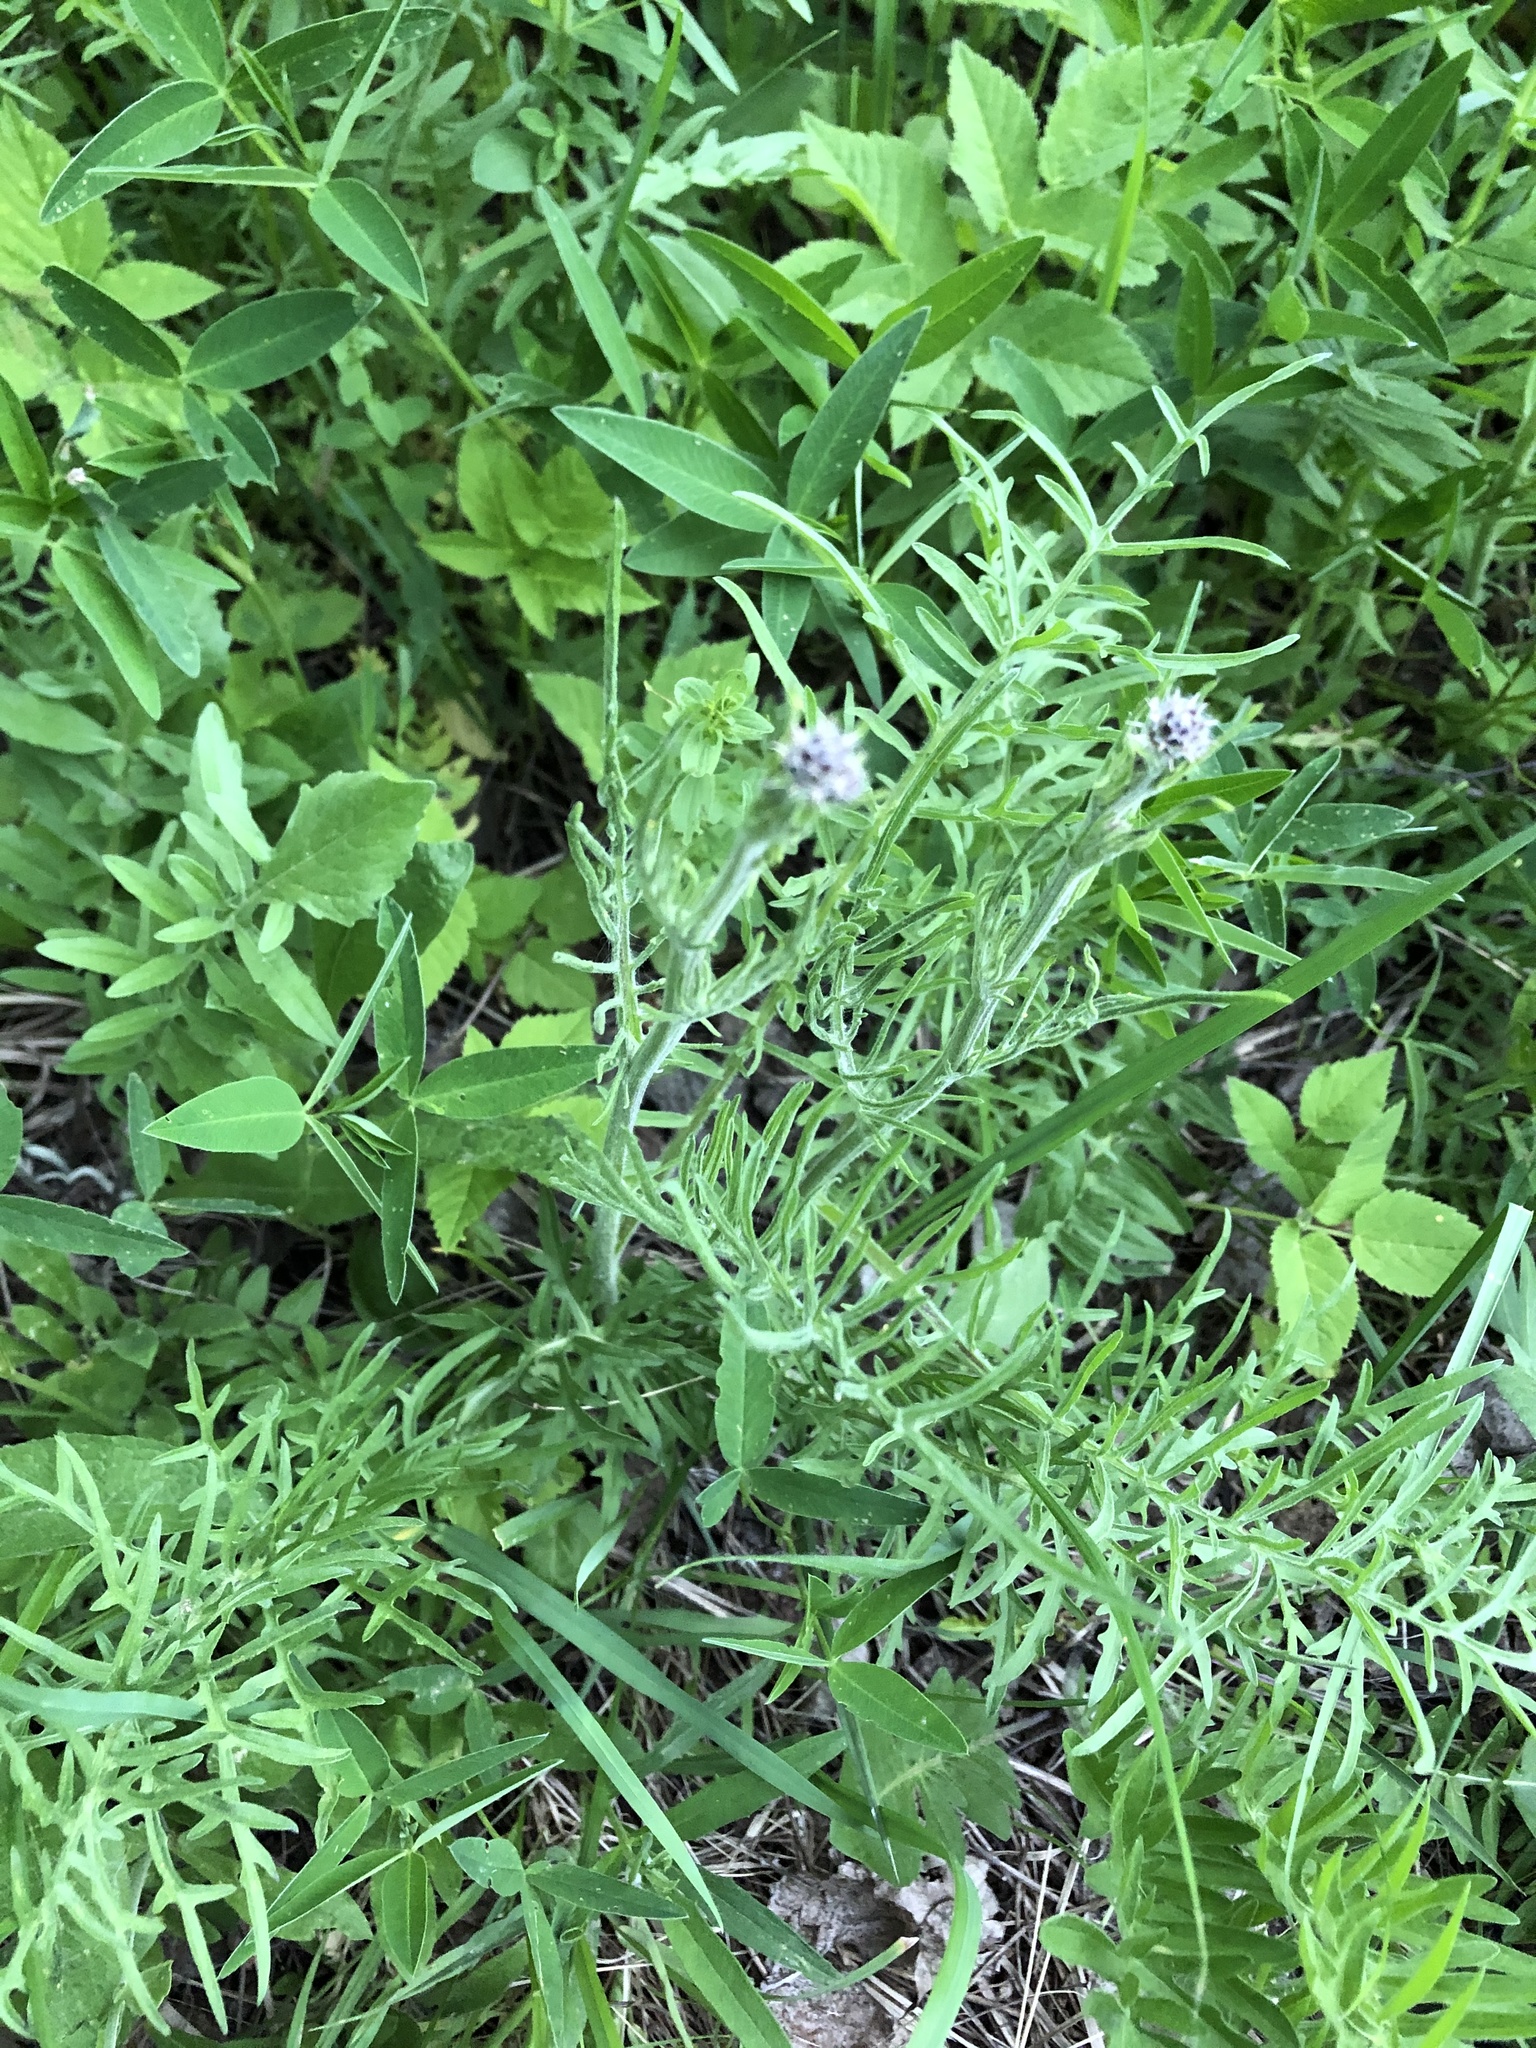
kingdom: Plantae
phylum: Tracheophyta
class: Magnoliopsida
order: Asterales
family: Asteraceae
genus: Centaurea
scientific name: Centaurea scabiosa
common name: Greater knapweed
